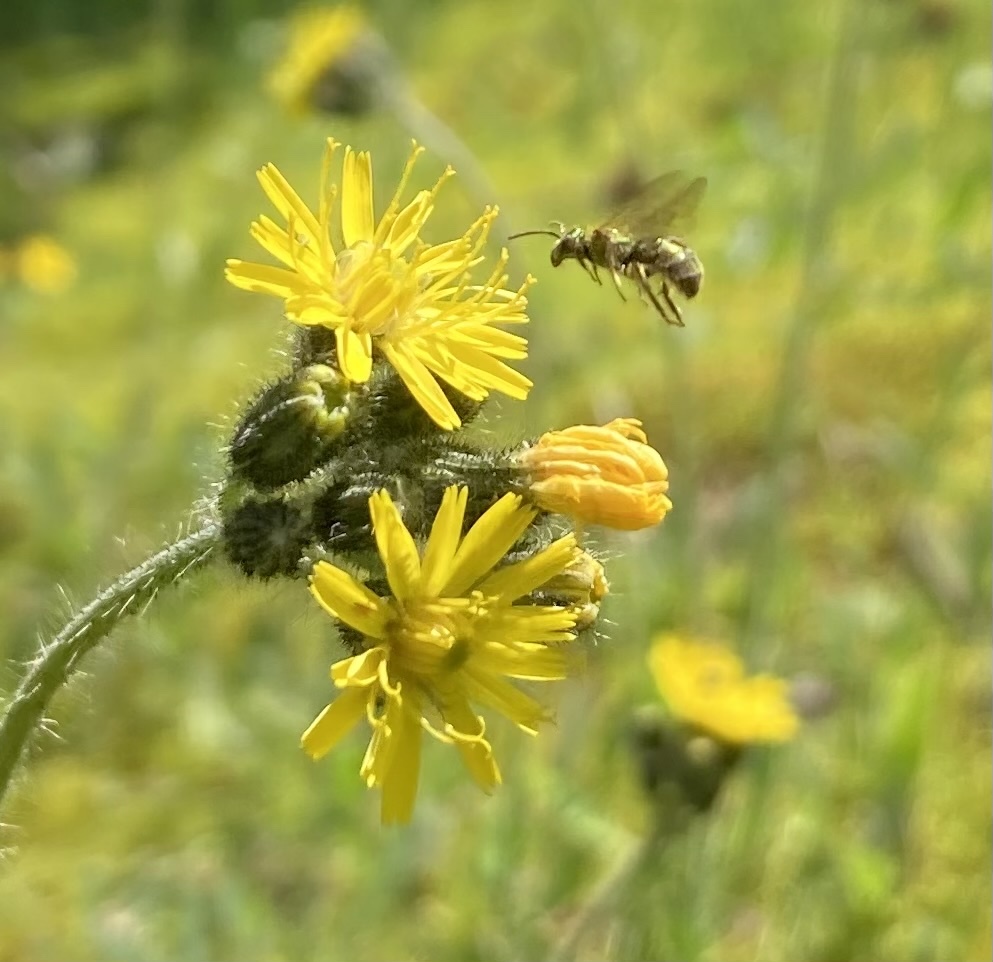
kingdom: Animalia
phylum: Arthropoda
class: Insecta
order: Hymenoptera
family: Halictidae
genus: Dialictus
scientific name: Dialictus
